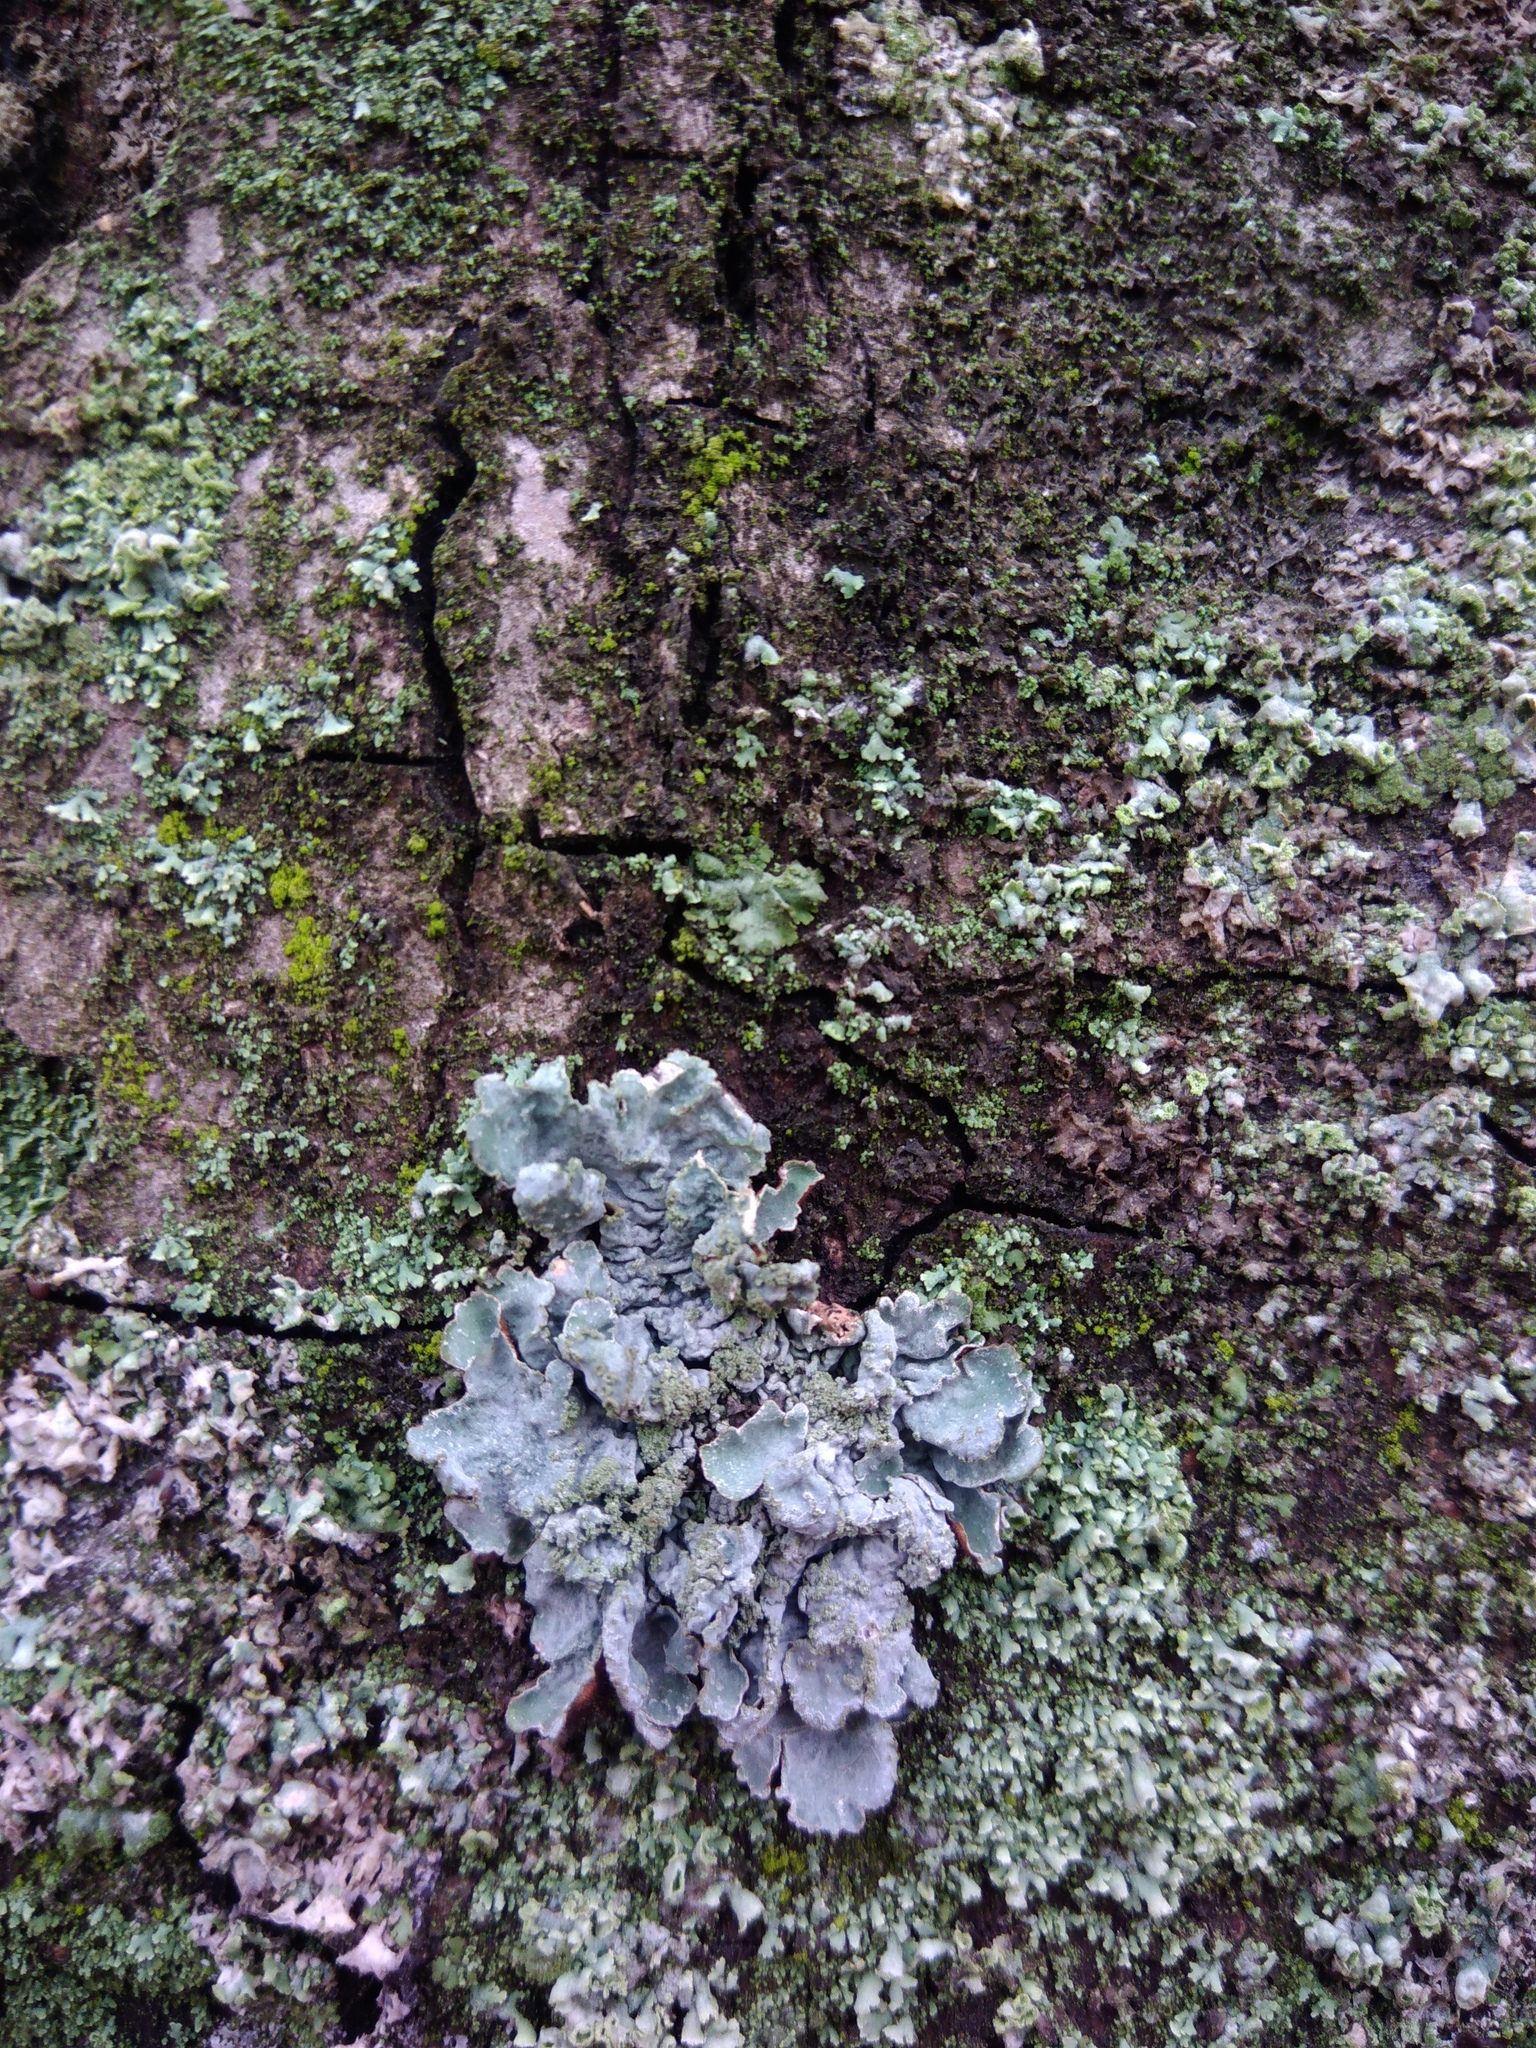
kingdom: Fungi
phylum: Ascomycota
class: Lecanoromycetes
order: Lecanorales
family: Parmeliaceae
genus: Parmelia
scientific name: Parmelia sulcata
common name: Netted shield lichen
